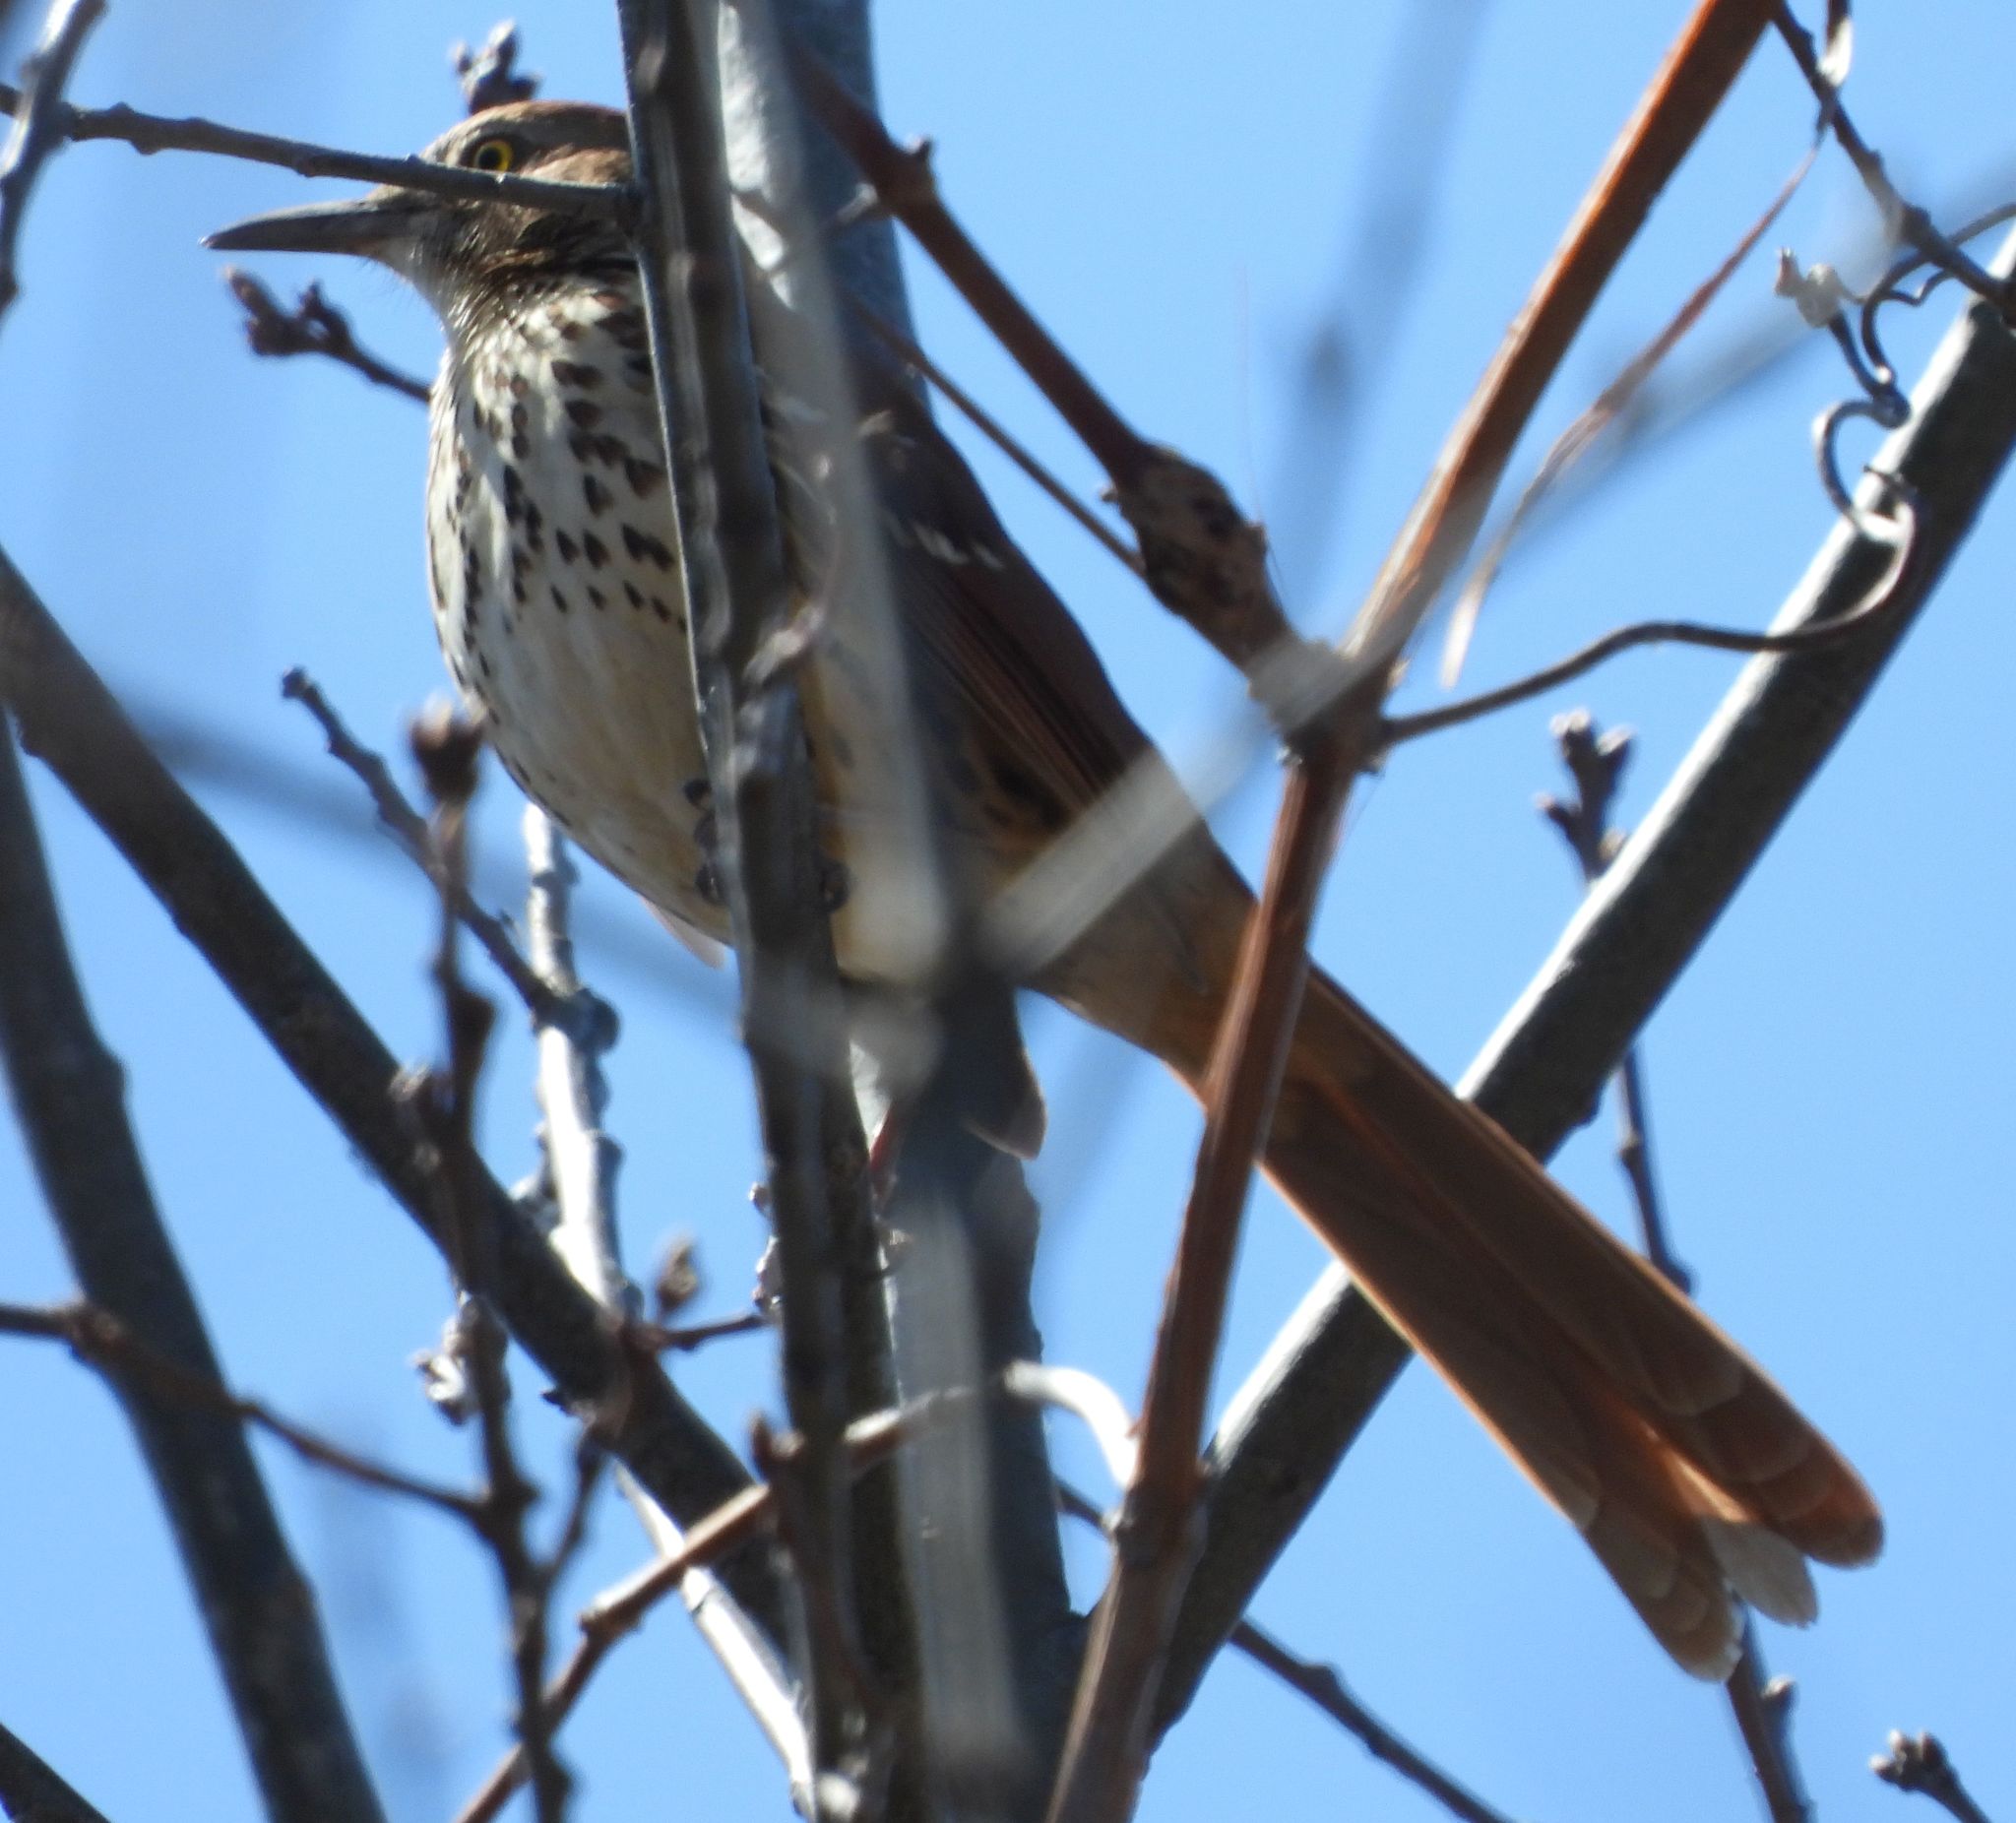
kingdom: Animalia
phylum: Chordata
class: Aves
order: Passeriformes
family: Mimidae
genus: Toxostoma
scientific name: Toxostoma rufum
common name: Brown thrasher
